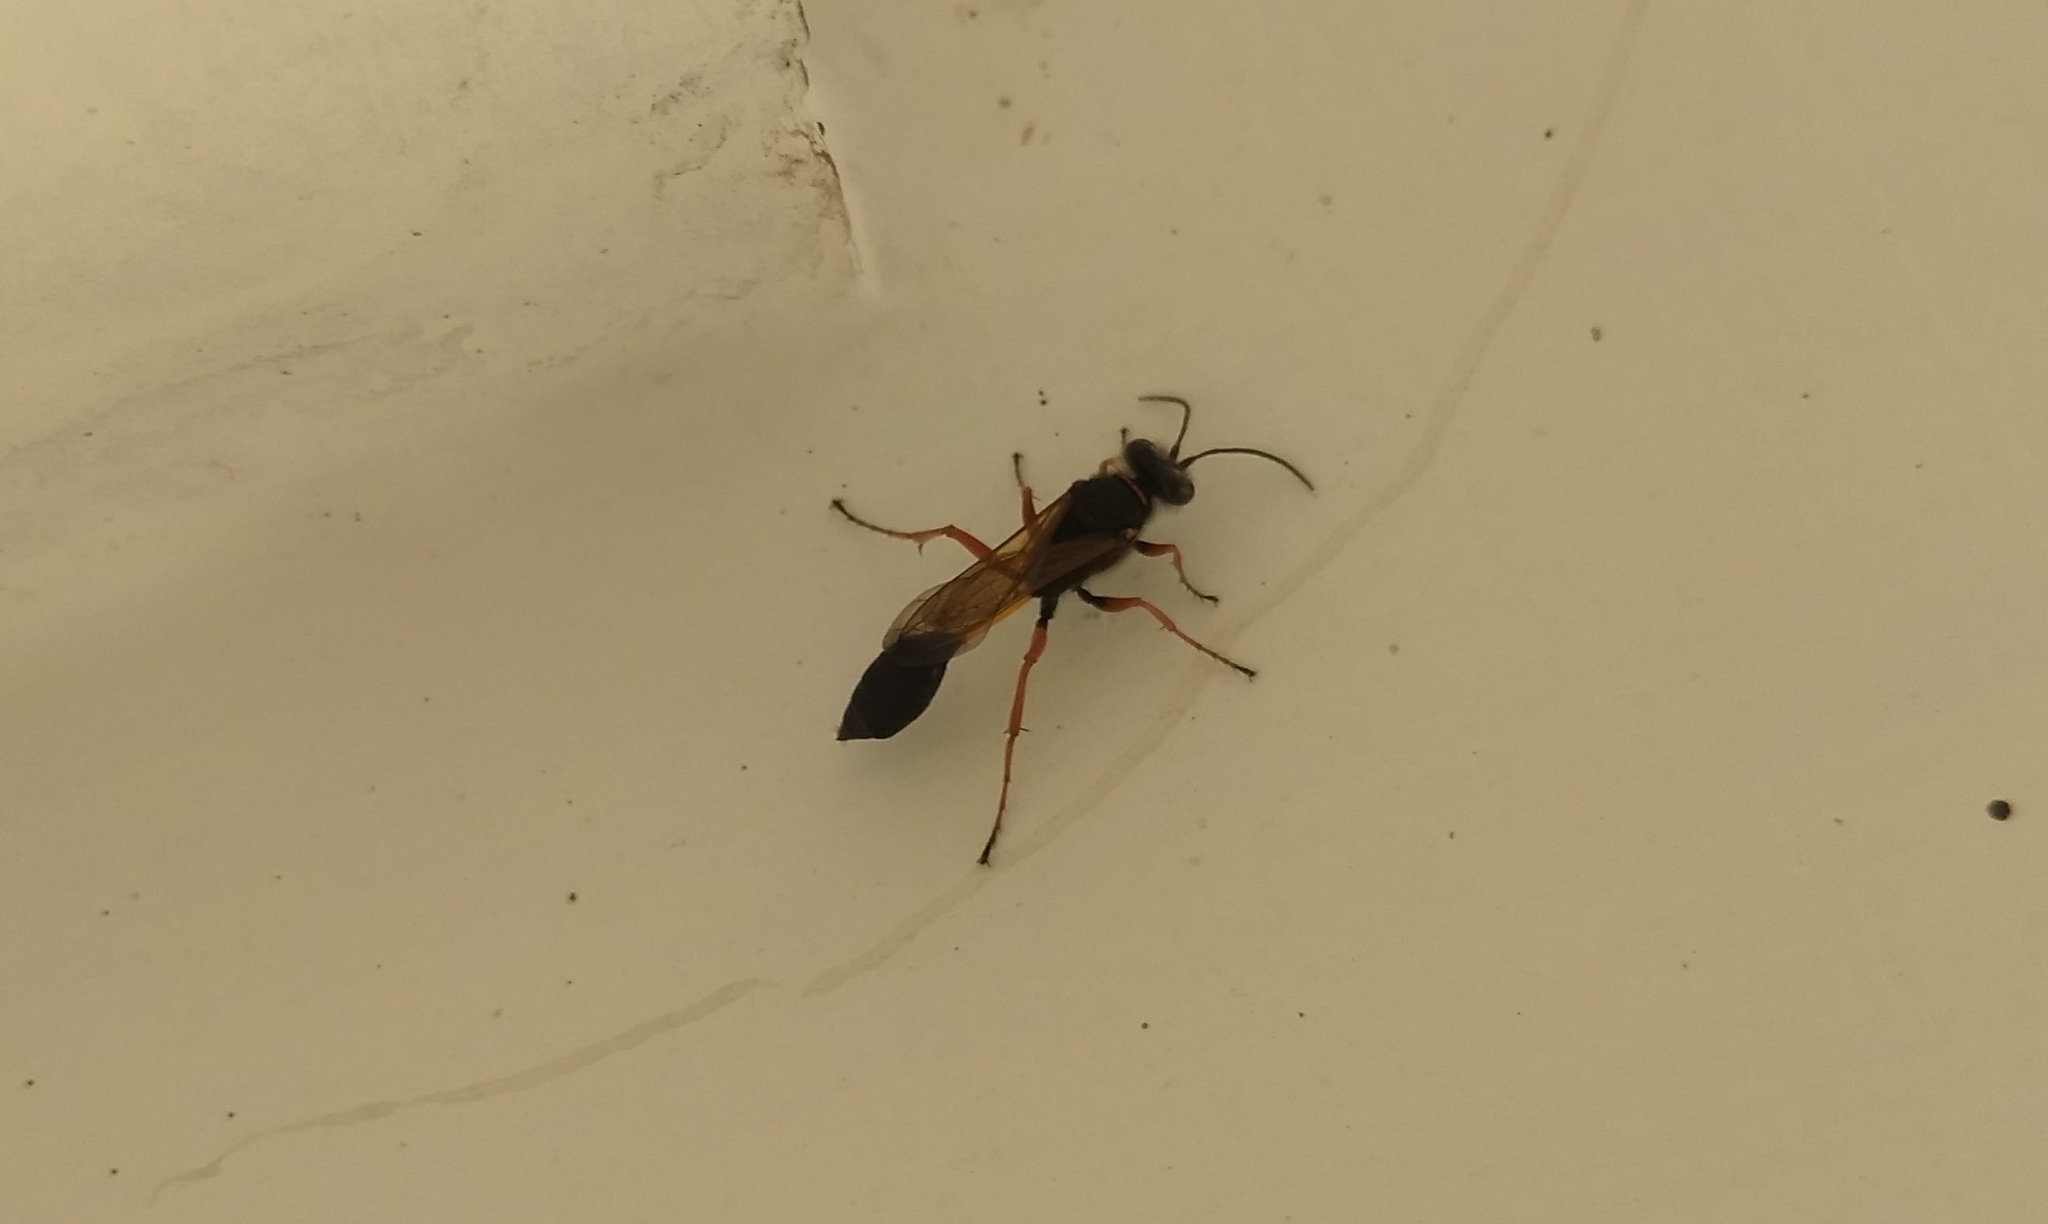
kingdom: Animalia
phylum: Arthropoda
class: Insecta
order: Hymenoptera
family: Sphecidae
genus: Sceliphron
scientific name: Sceliphron coromandelicum
